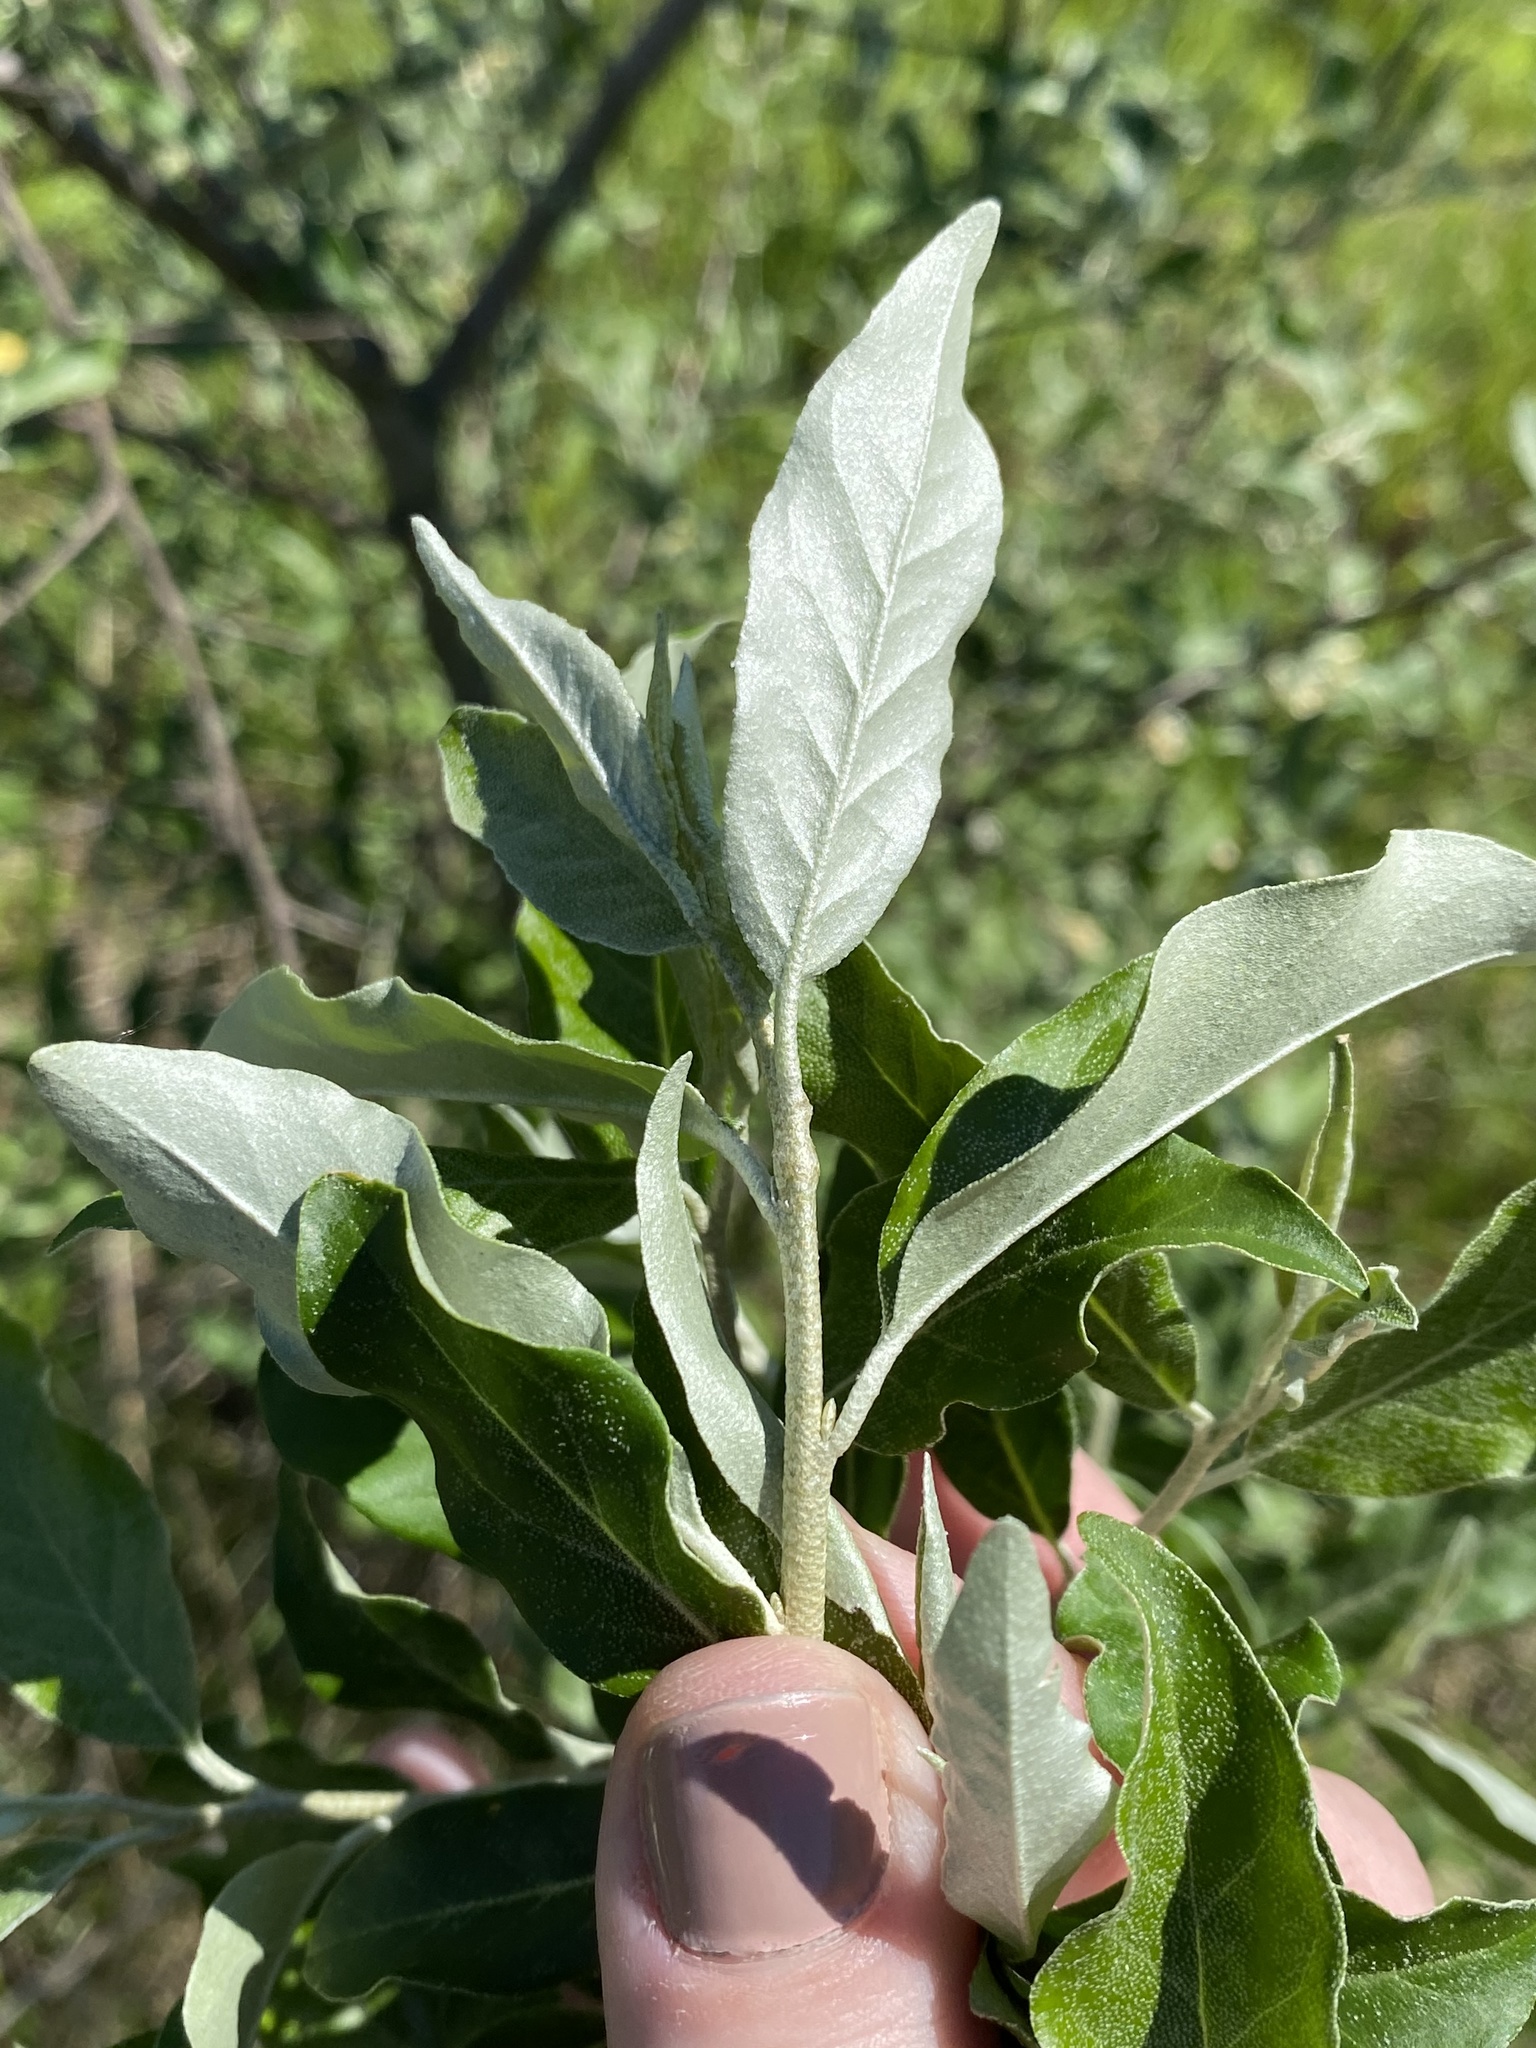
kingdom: Plantae
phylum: Tracheophyta
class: Magnoliopsida
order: Rosales
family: Elaeagnaceae
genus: Elaeagnus
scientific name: Elaeagnus umbellata
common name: Autumn olive
